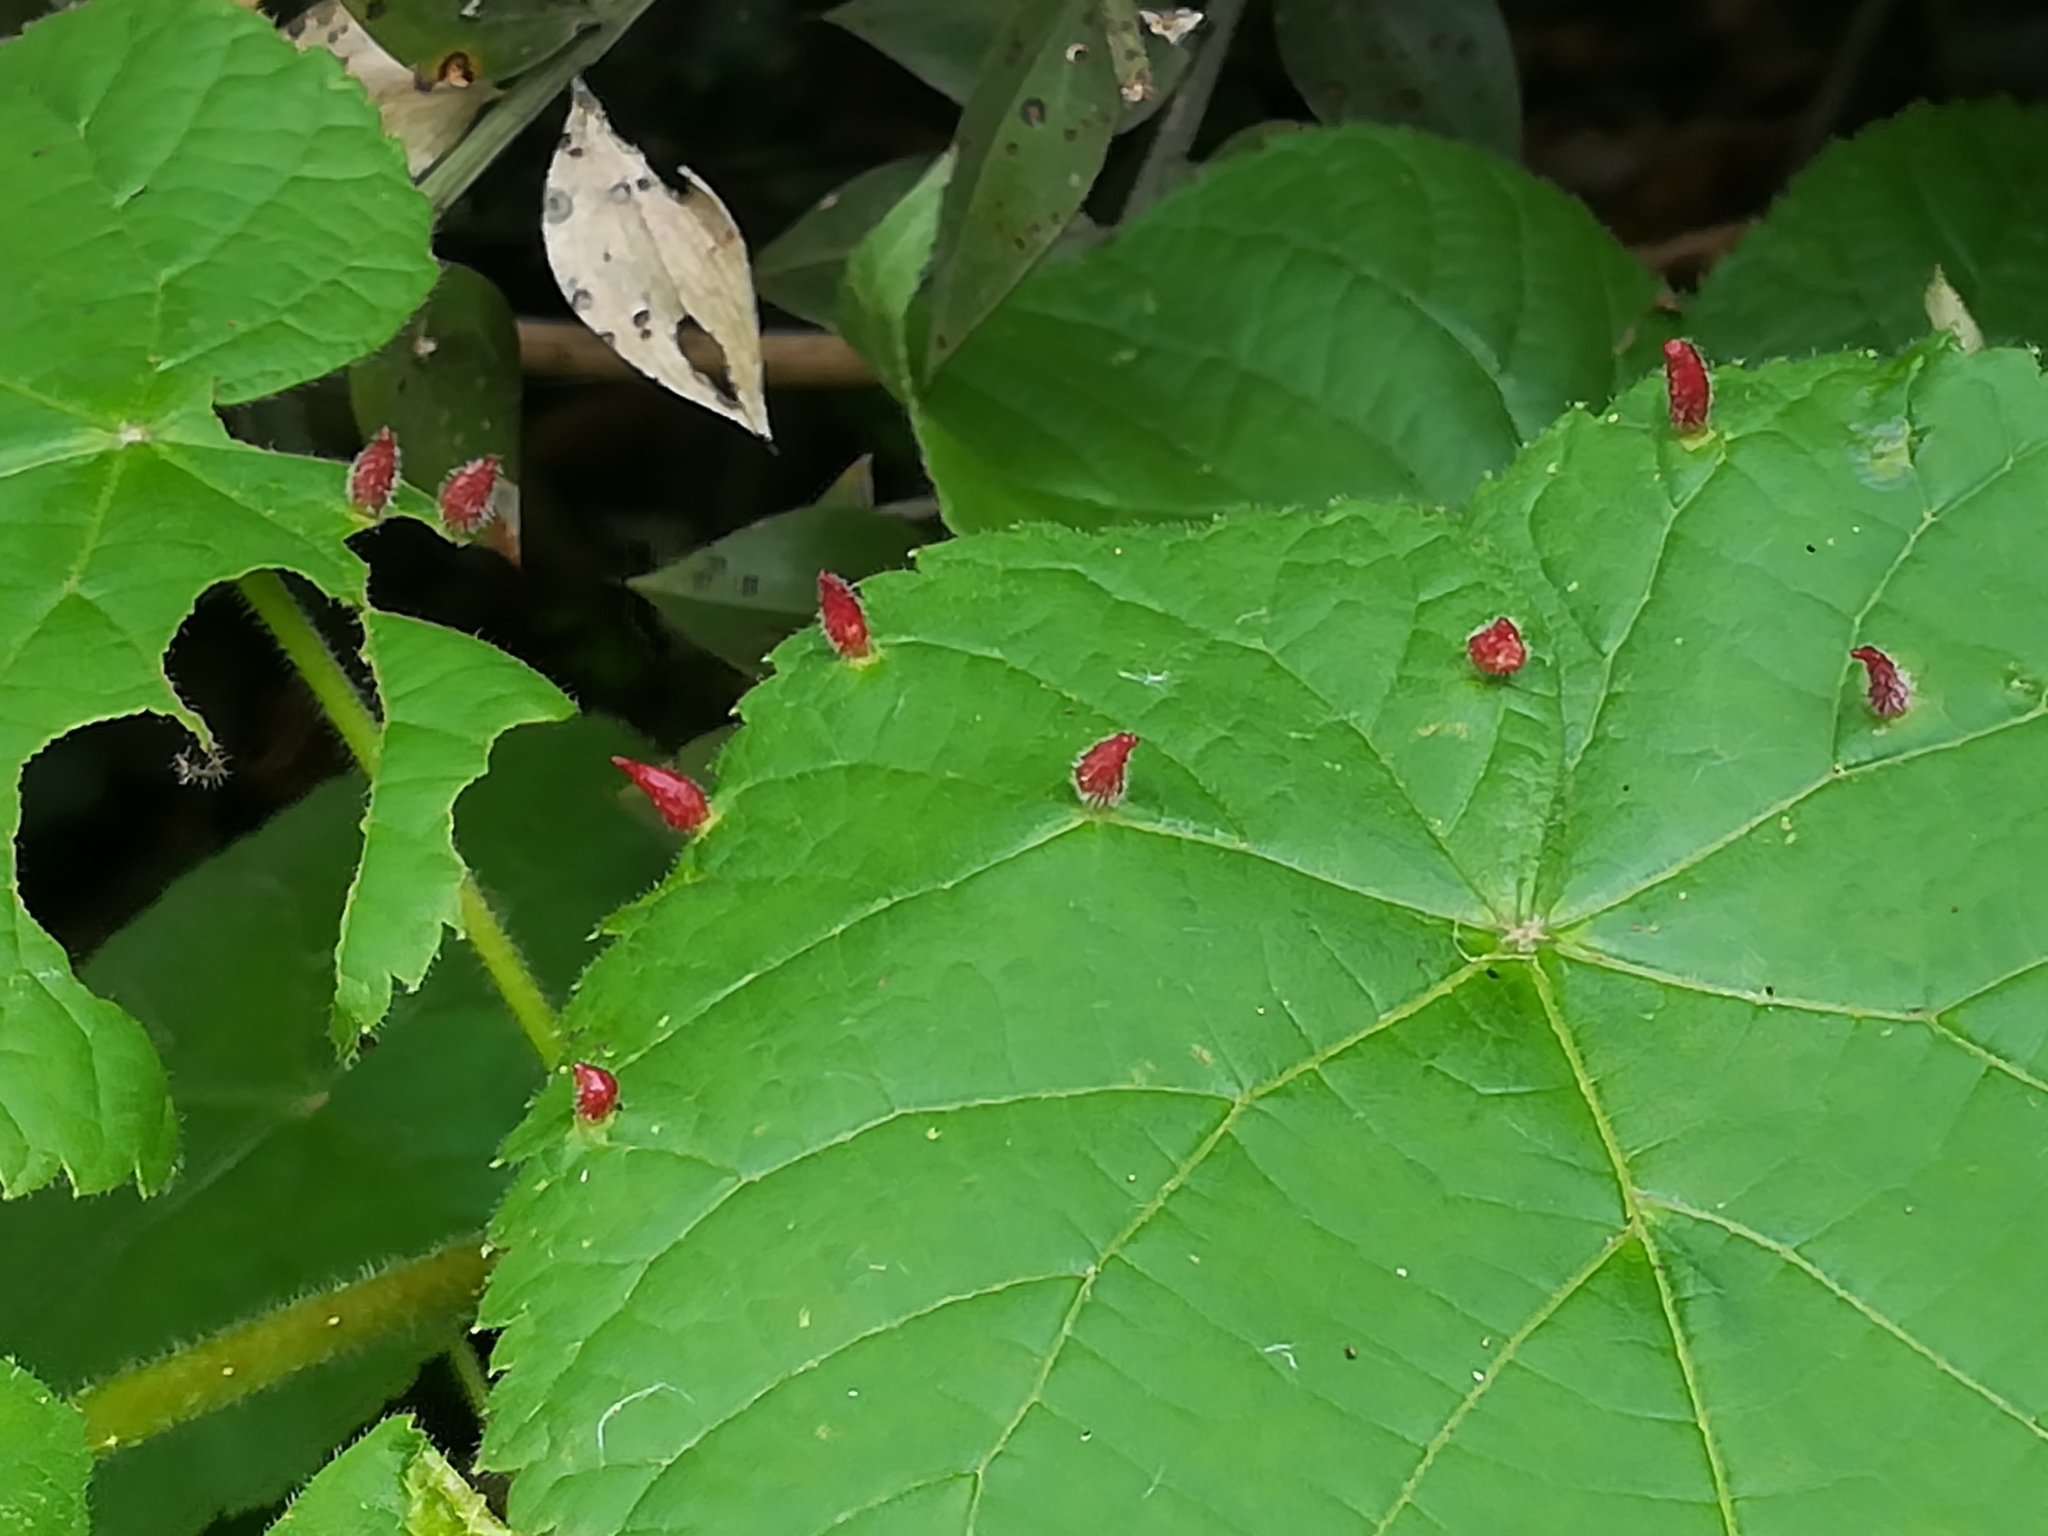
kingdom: Animalia
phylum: Arthropoda
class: Arachnida
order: Trombidiformes
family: Eriophyidae
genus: Eriophyes
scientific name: Eriophyes tiliae
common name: Red nail gall mite
